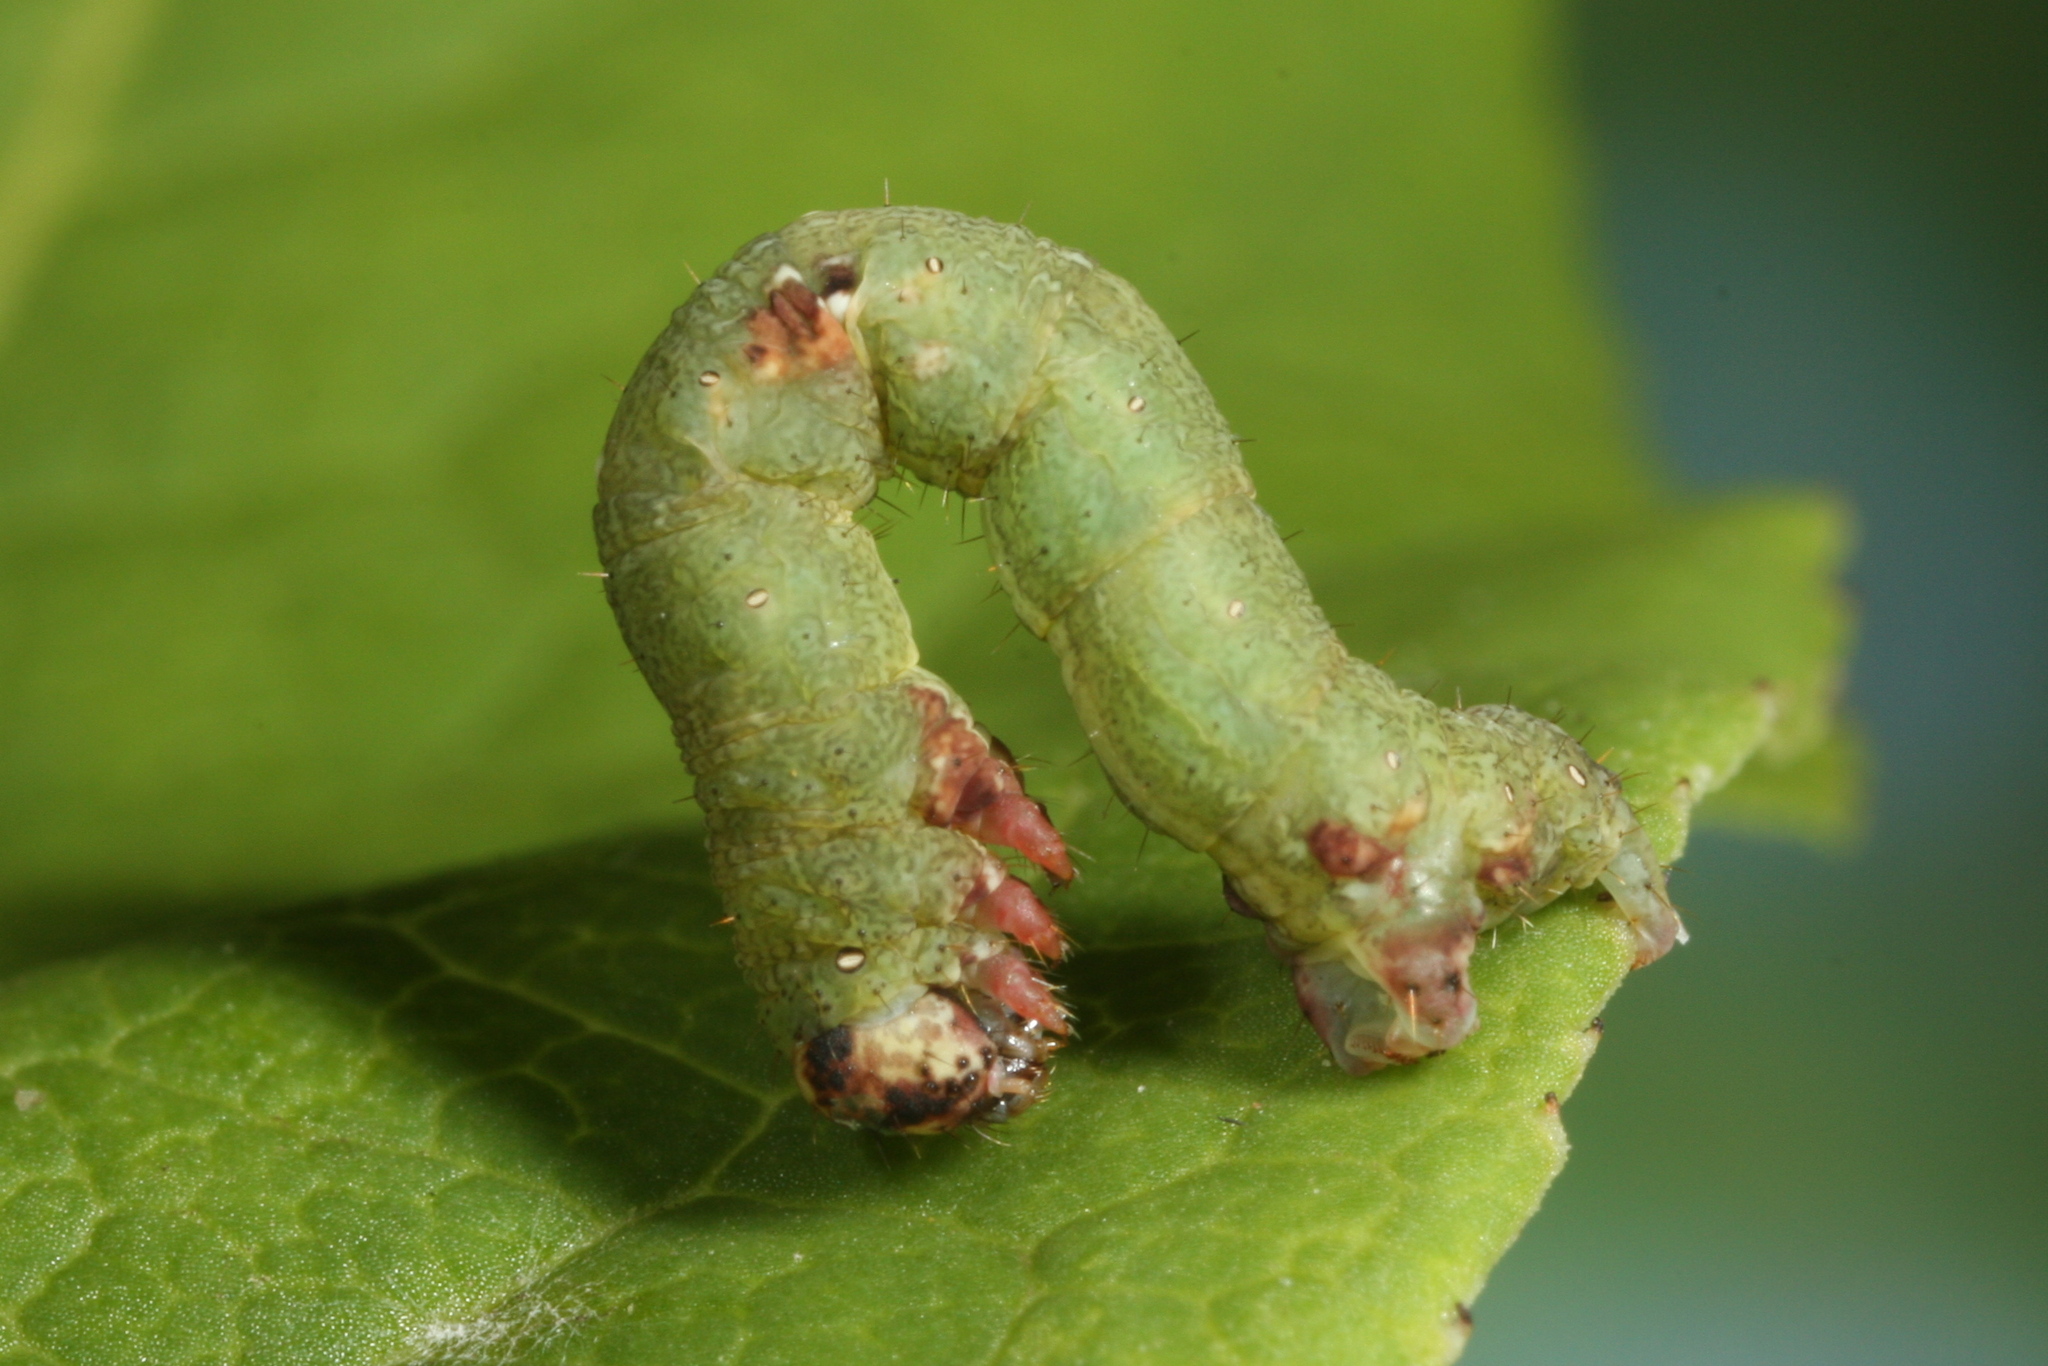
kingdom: Animalia
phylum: Arthropoda
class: Insecta
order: Lepidoptera
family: Geometridae
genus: Ligdia
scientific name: Ligdia adustata
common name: Scorched carpet
